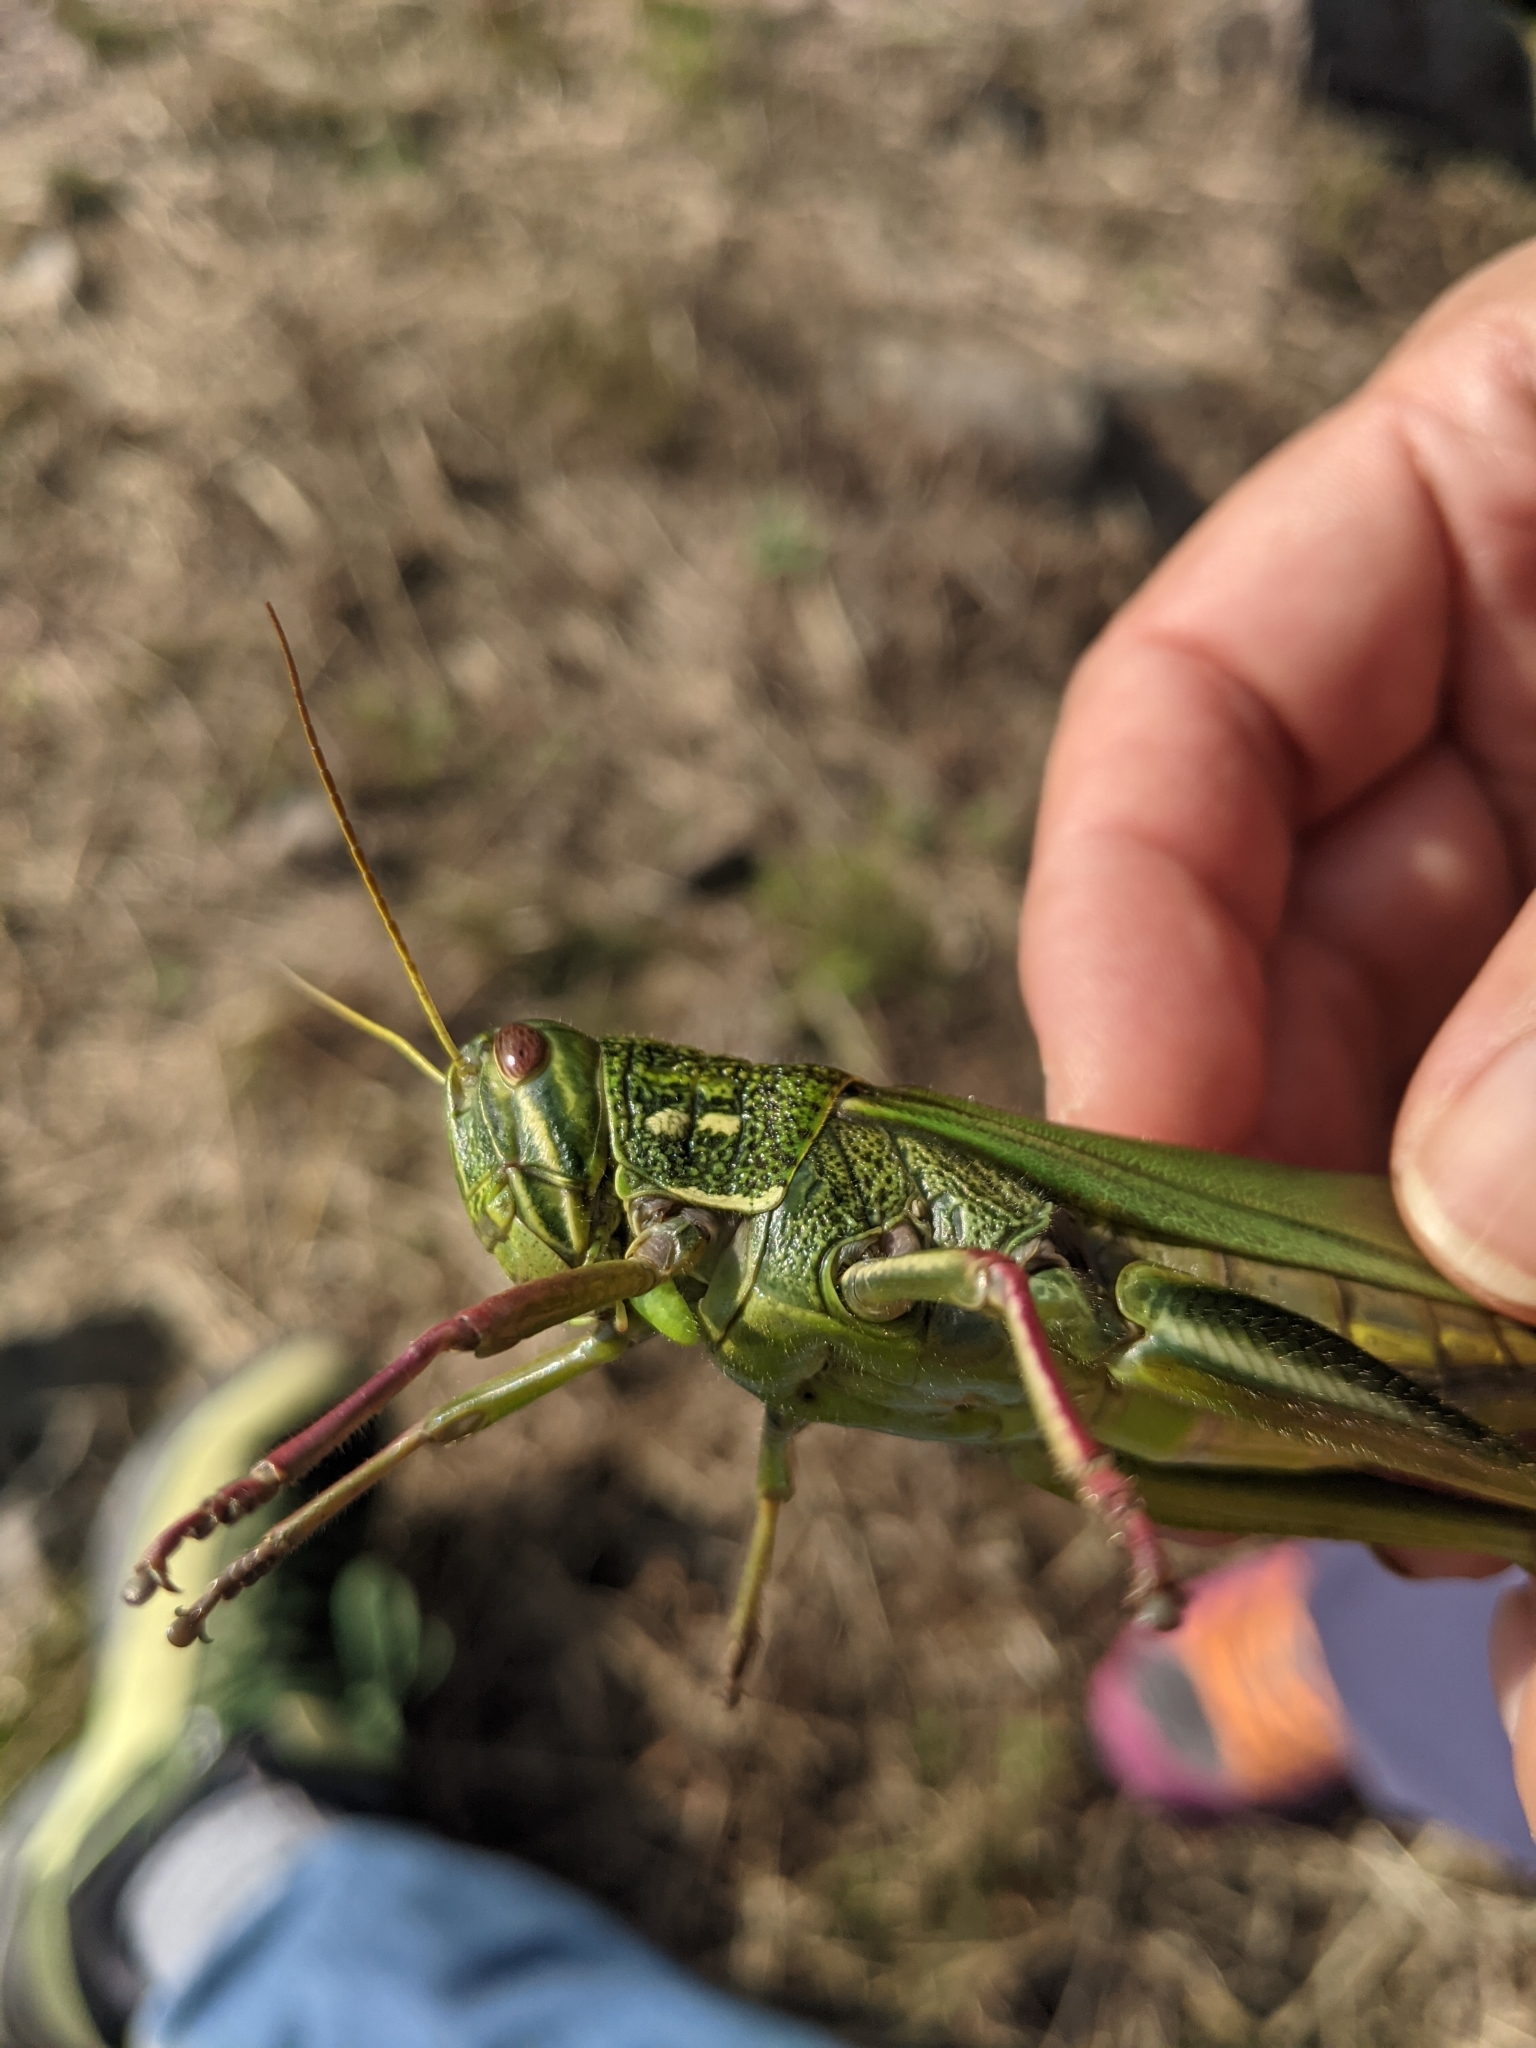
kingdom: Animalia
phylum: Arthropoda
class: Insecta
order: Orthoptera
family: Acrididae
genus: Chondracris
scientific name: Chondracris rosea
